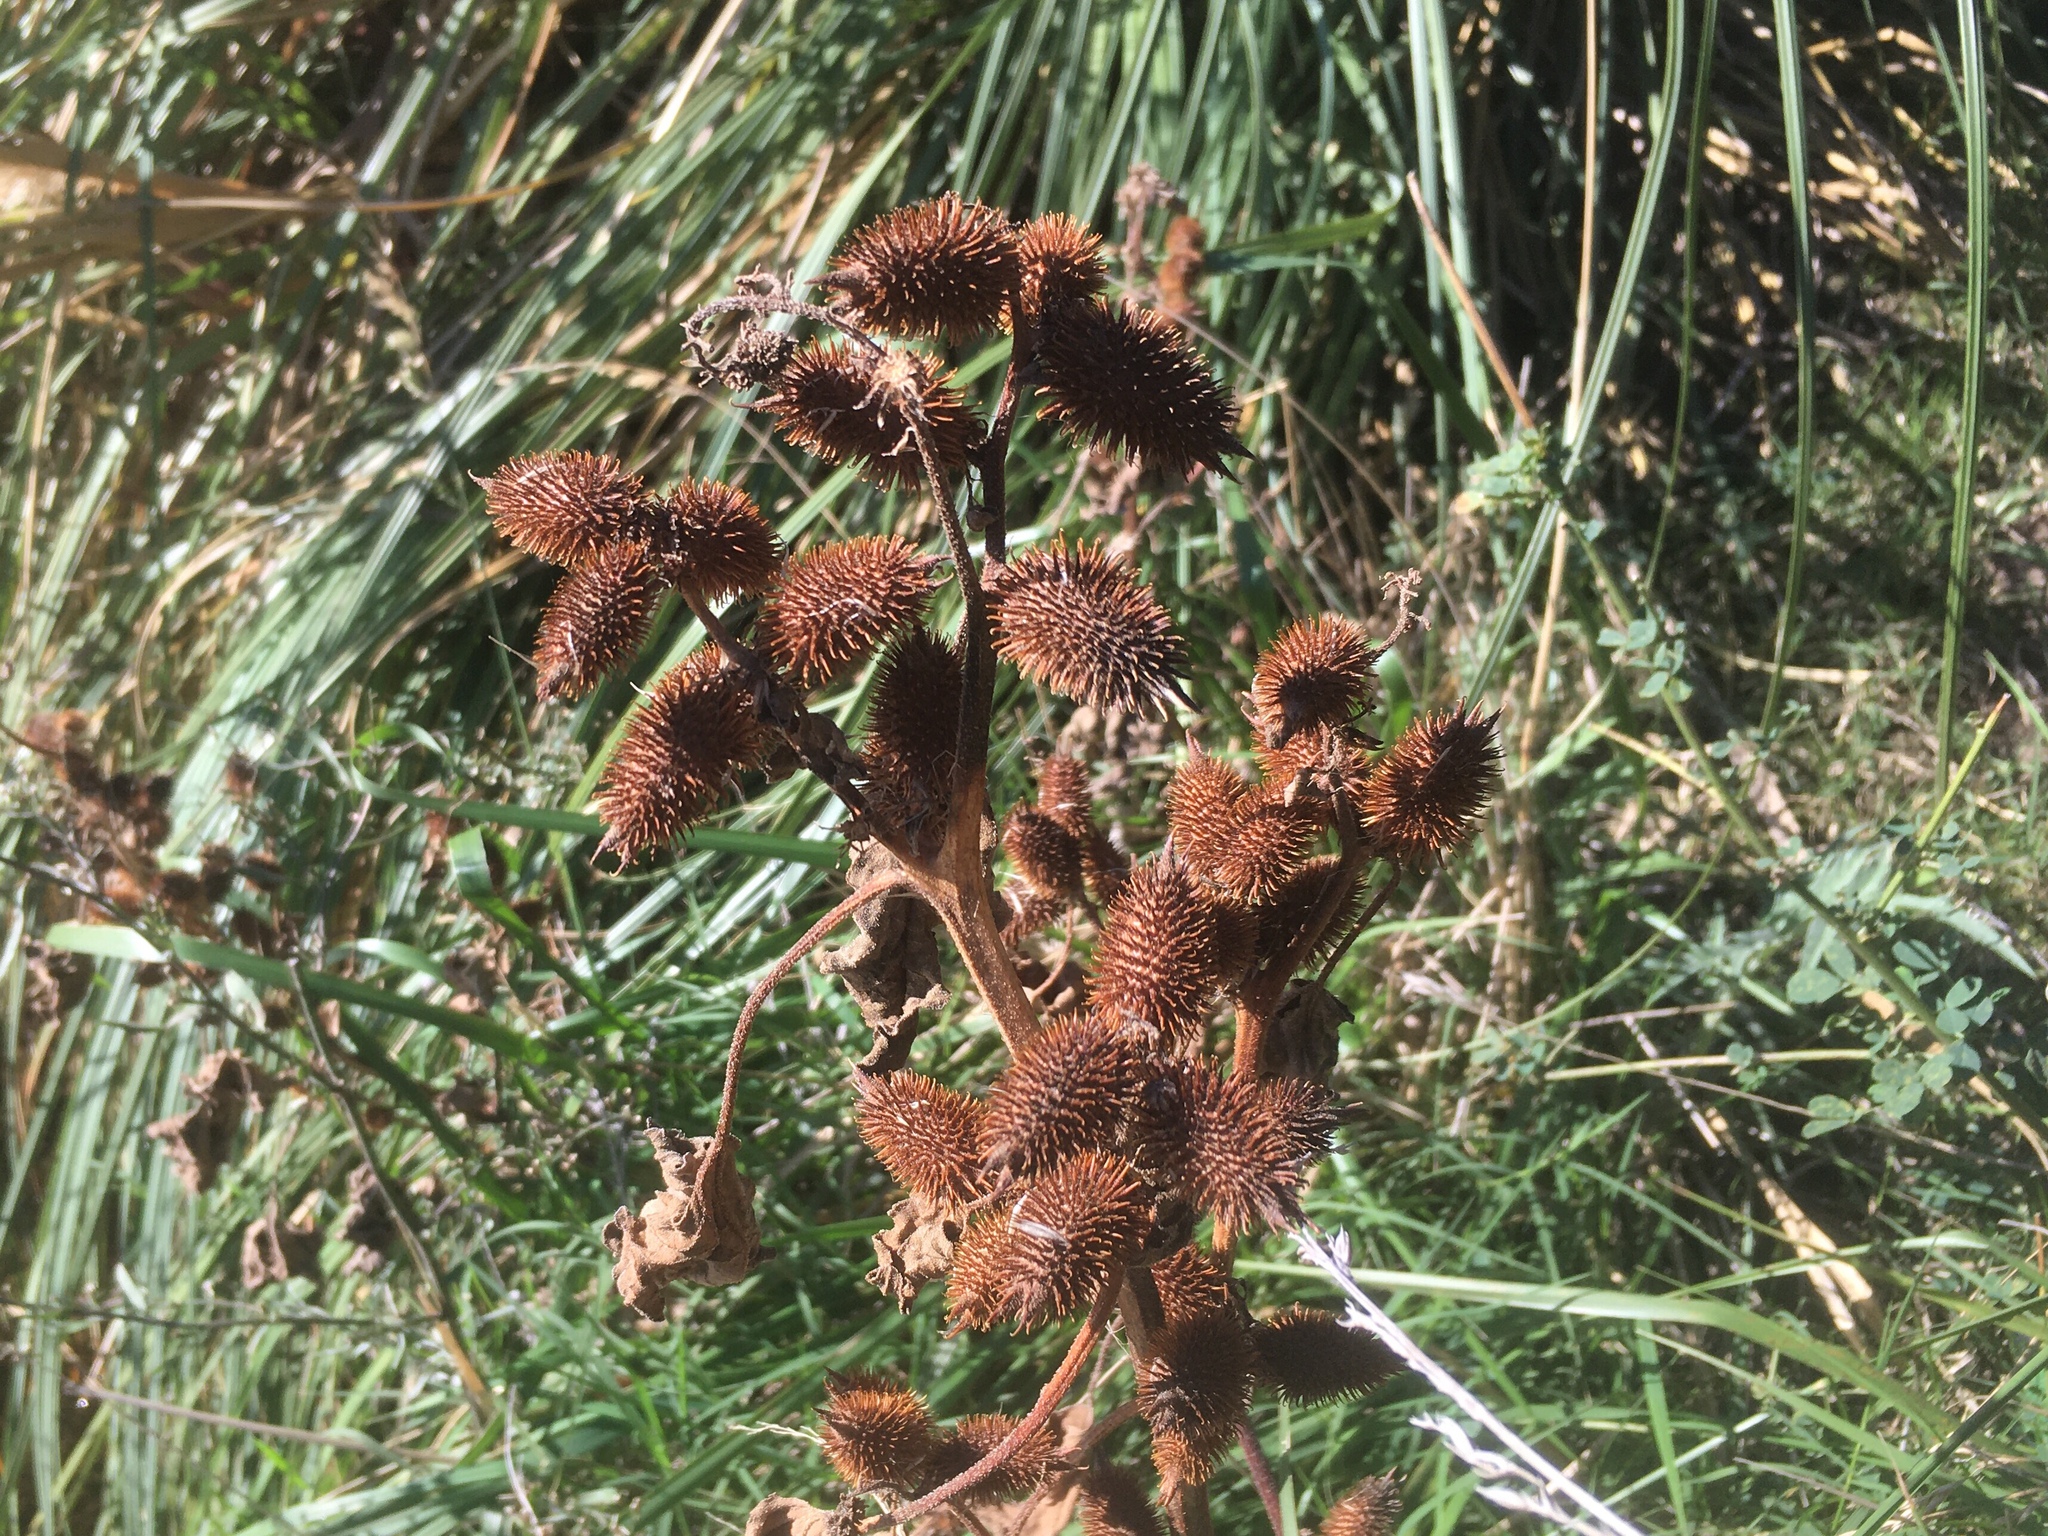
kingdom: Plantae
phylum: Tracheophyta
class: Magnoliopsida
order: Asterales
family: Asteraceae
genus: Xanthium
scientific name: Xanthium strumarium
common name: Rough cocklebur
